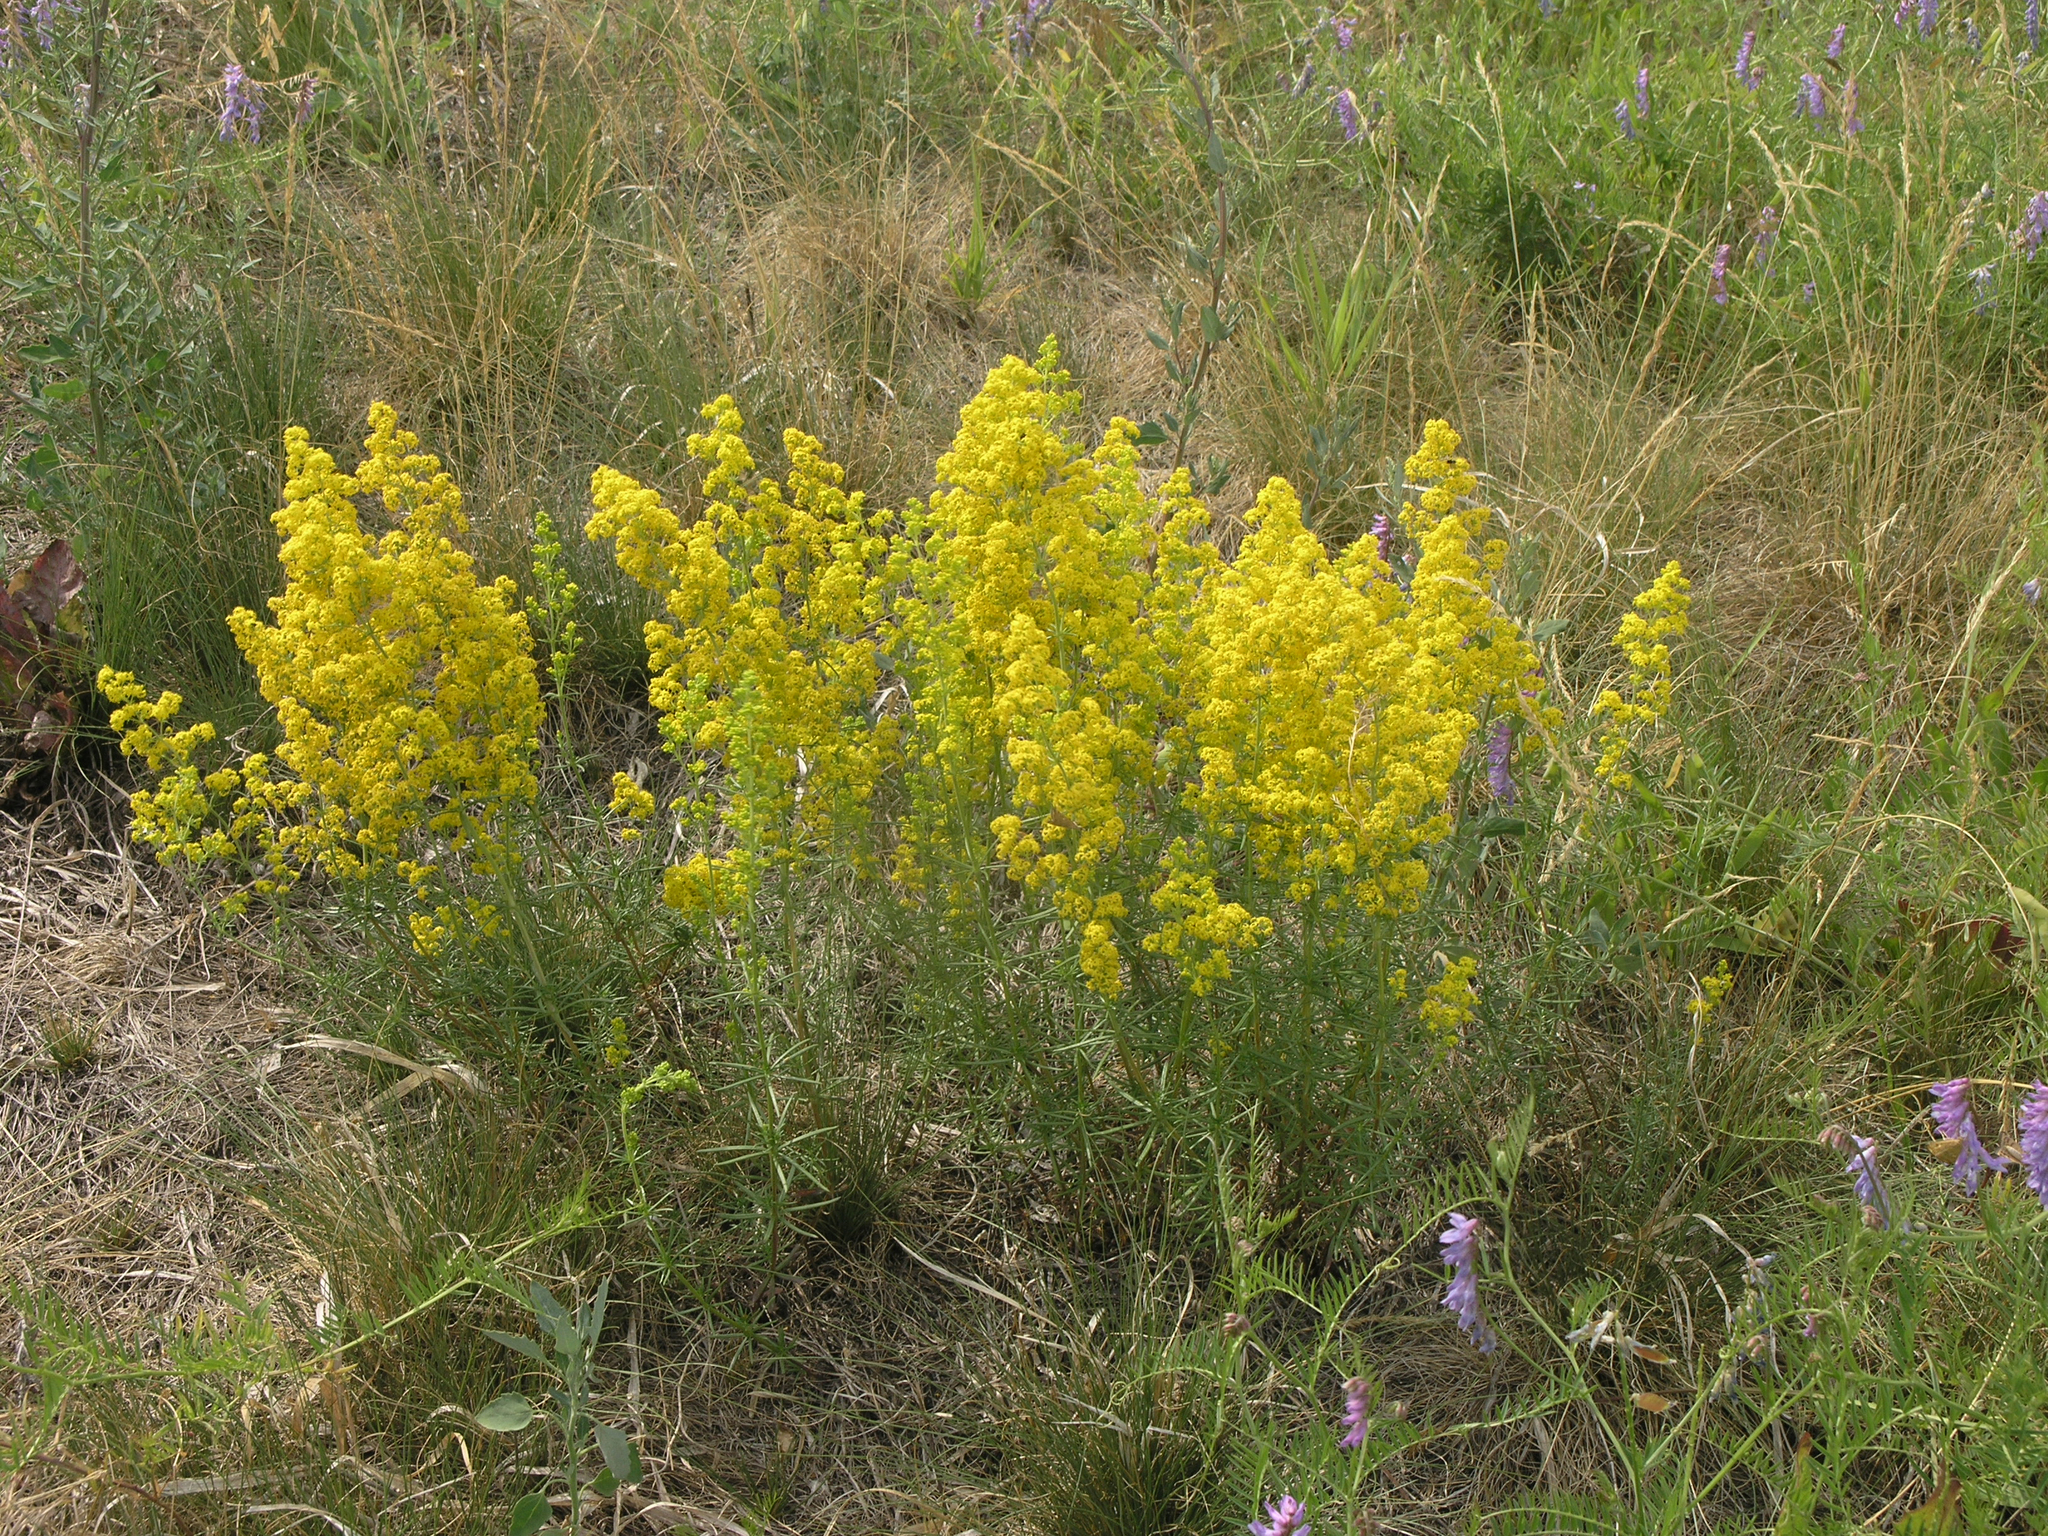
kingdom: Plantae
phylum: Tracheophyta
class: Magnoliopsida
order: Gentianales
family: Rubiaceae
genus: Galium
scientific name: Galium verum
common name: Lady's bedstraw
